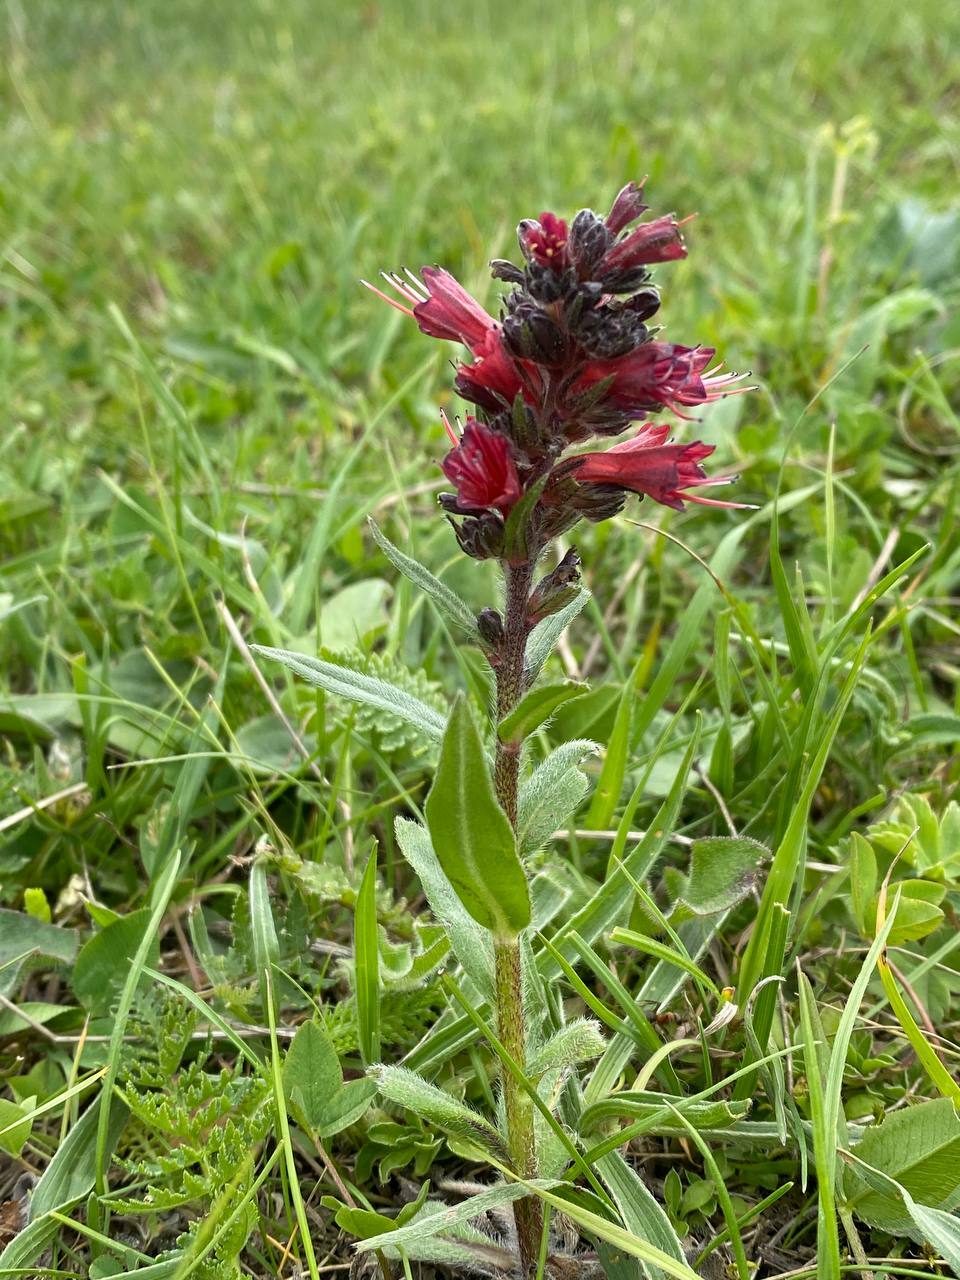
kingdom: Plantae
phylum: Tracheophyta
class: Magnoliopsida
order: Boraginales
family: Boraginaceae
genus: Pontechium
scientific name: Pontechium maculatum
